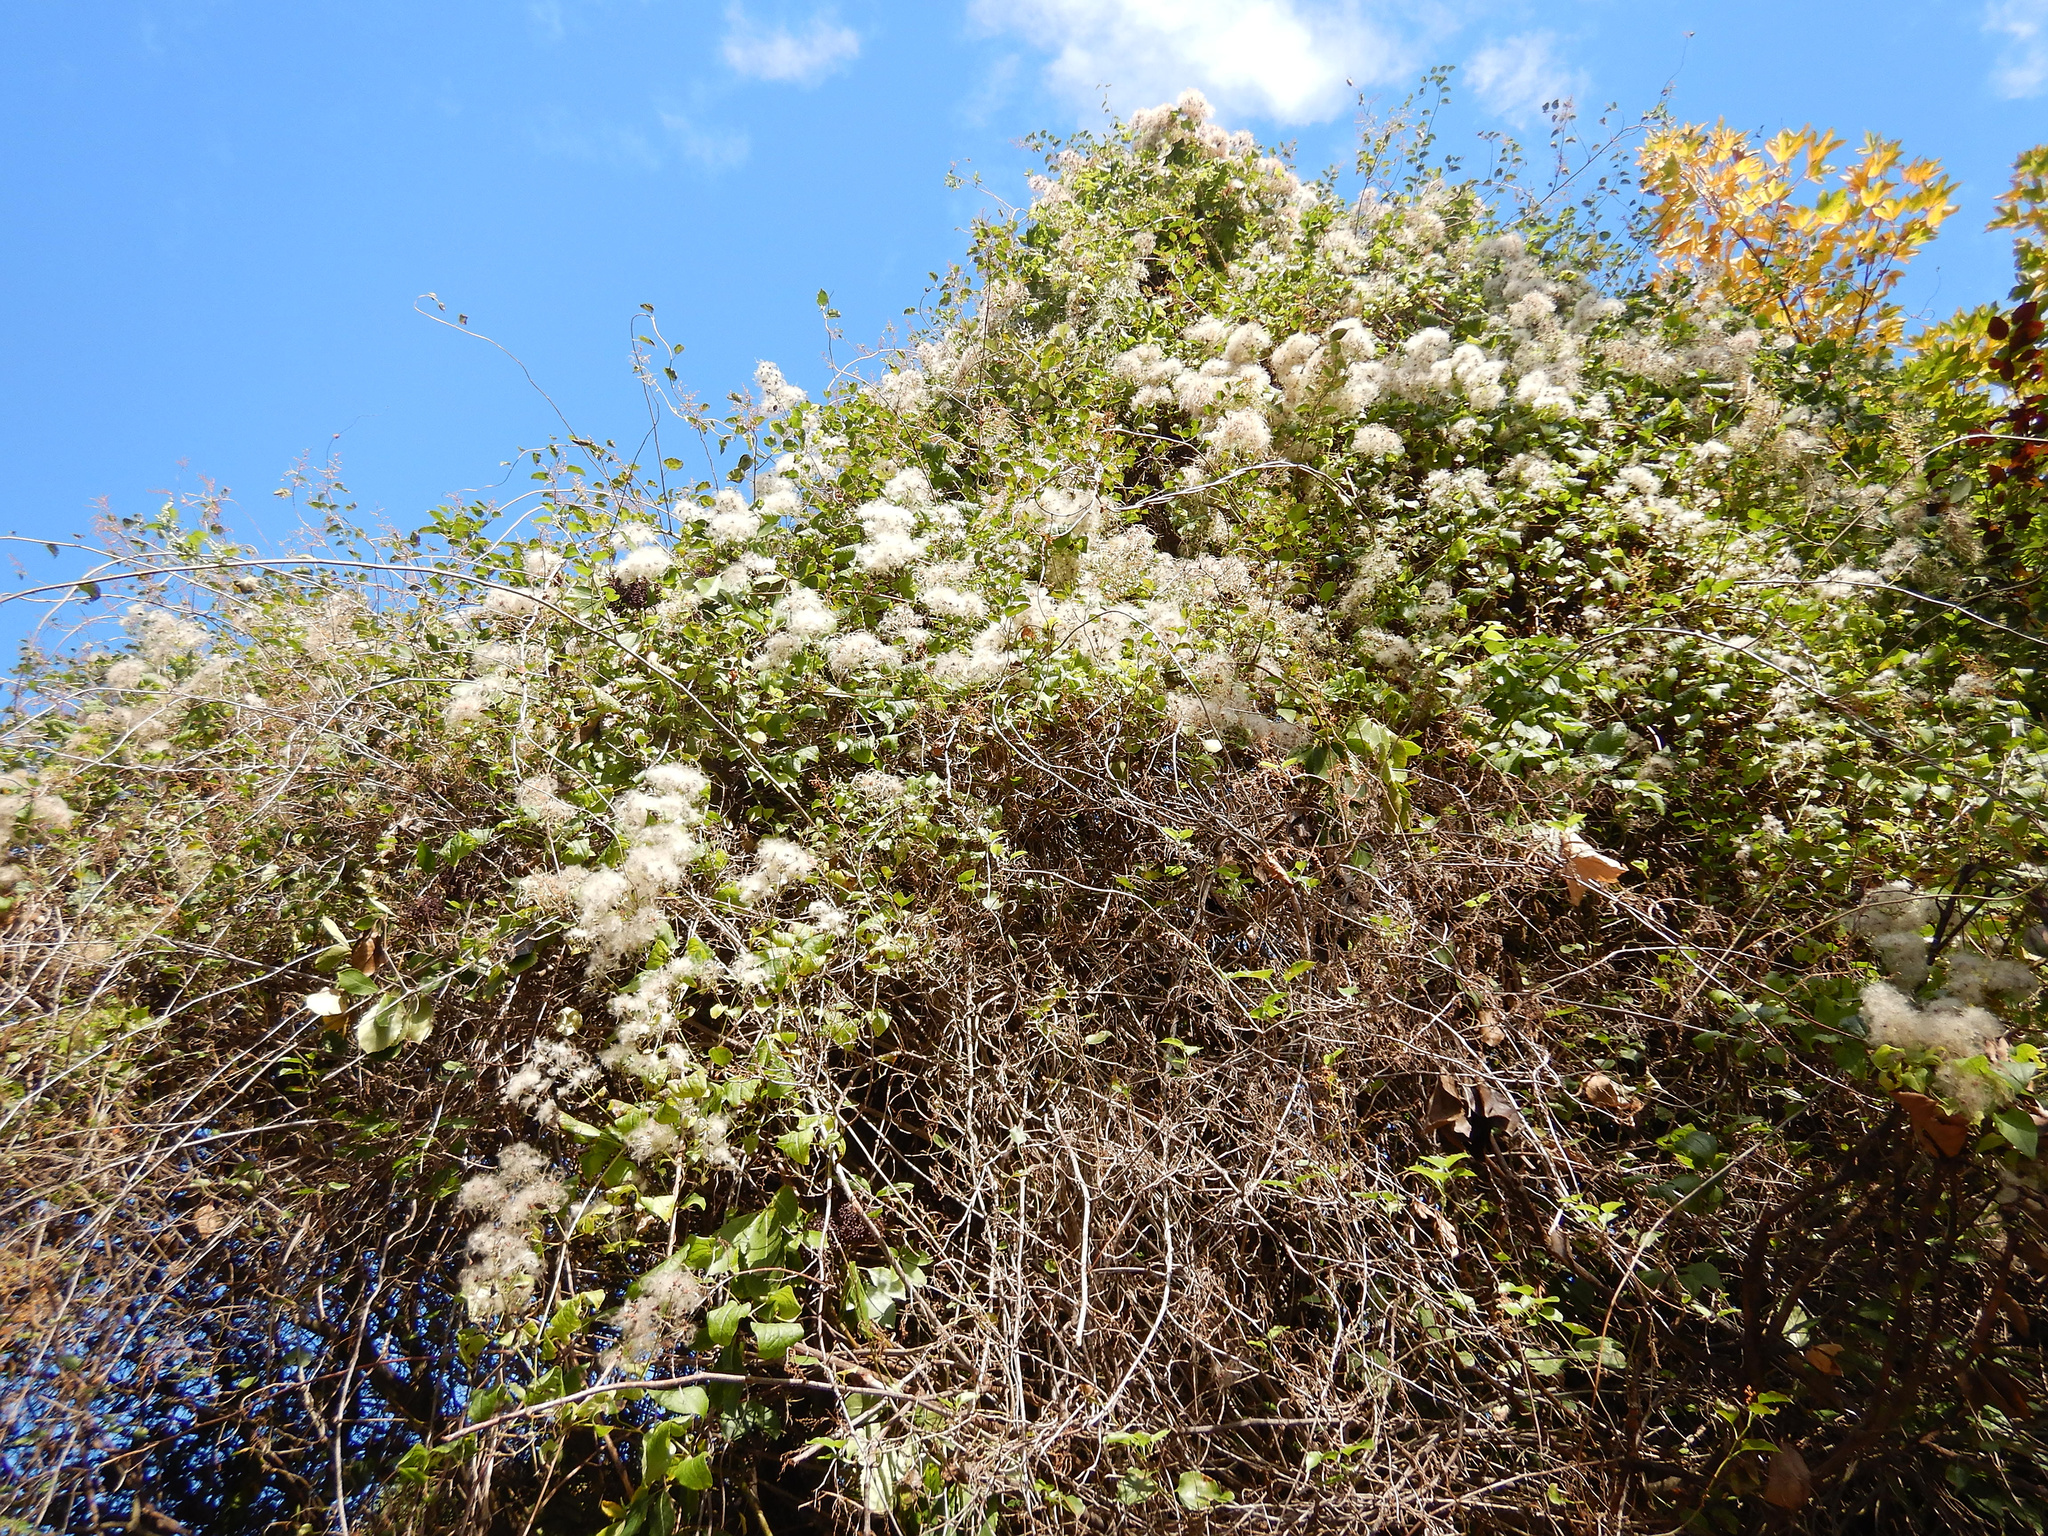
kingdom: Plantae
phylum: Tracheophyta
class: Magnoliopsida
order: Ranunculales
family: Ranunculaceae
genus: Clematis
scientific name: Clematis vitalba
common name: Evergreen clematis
